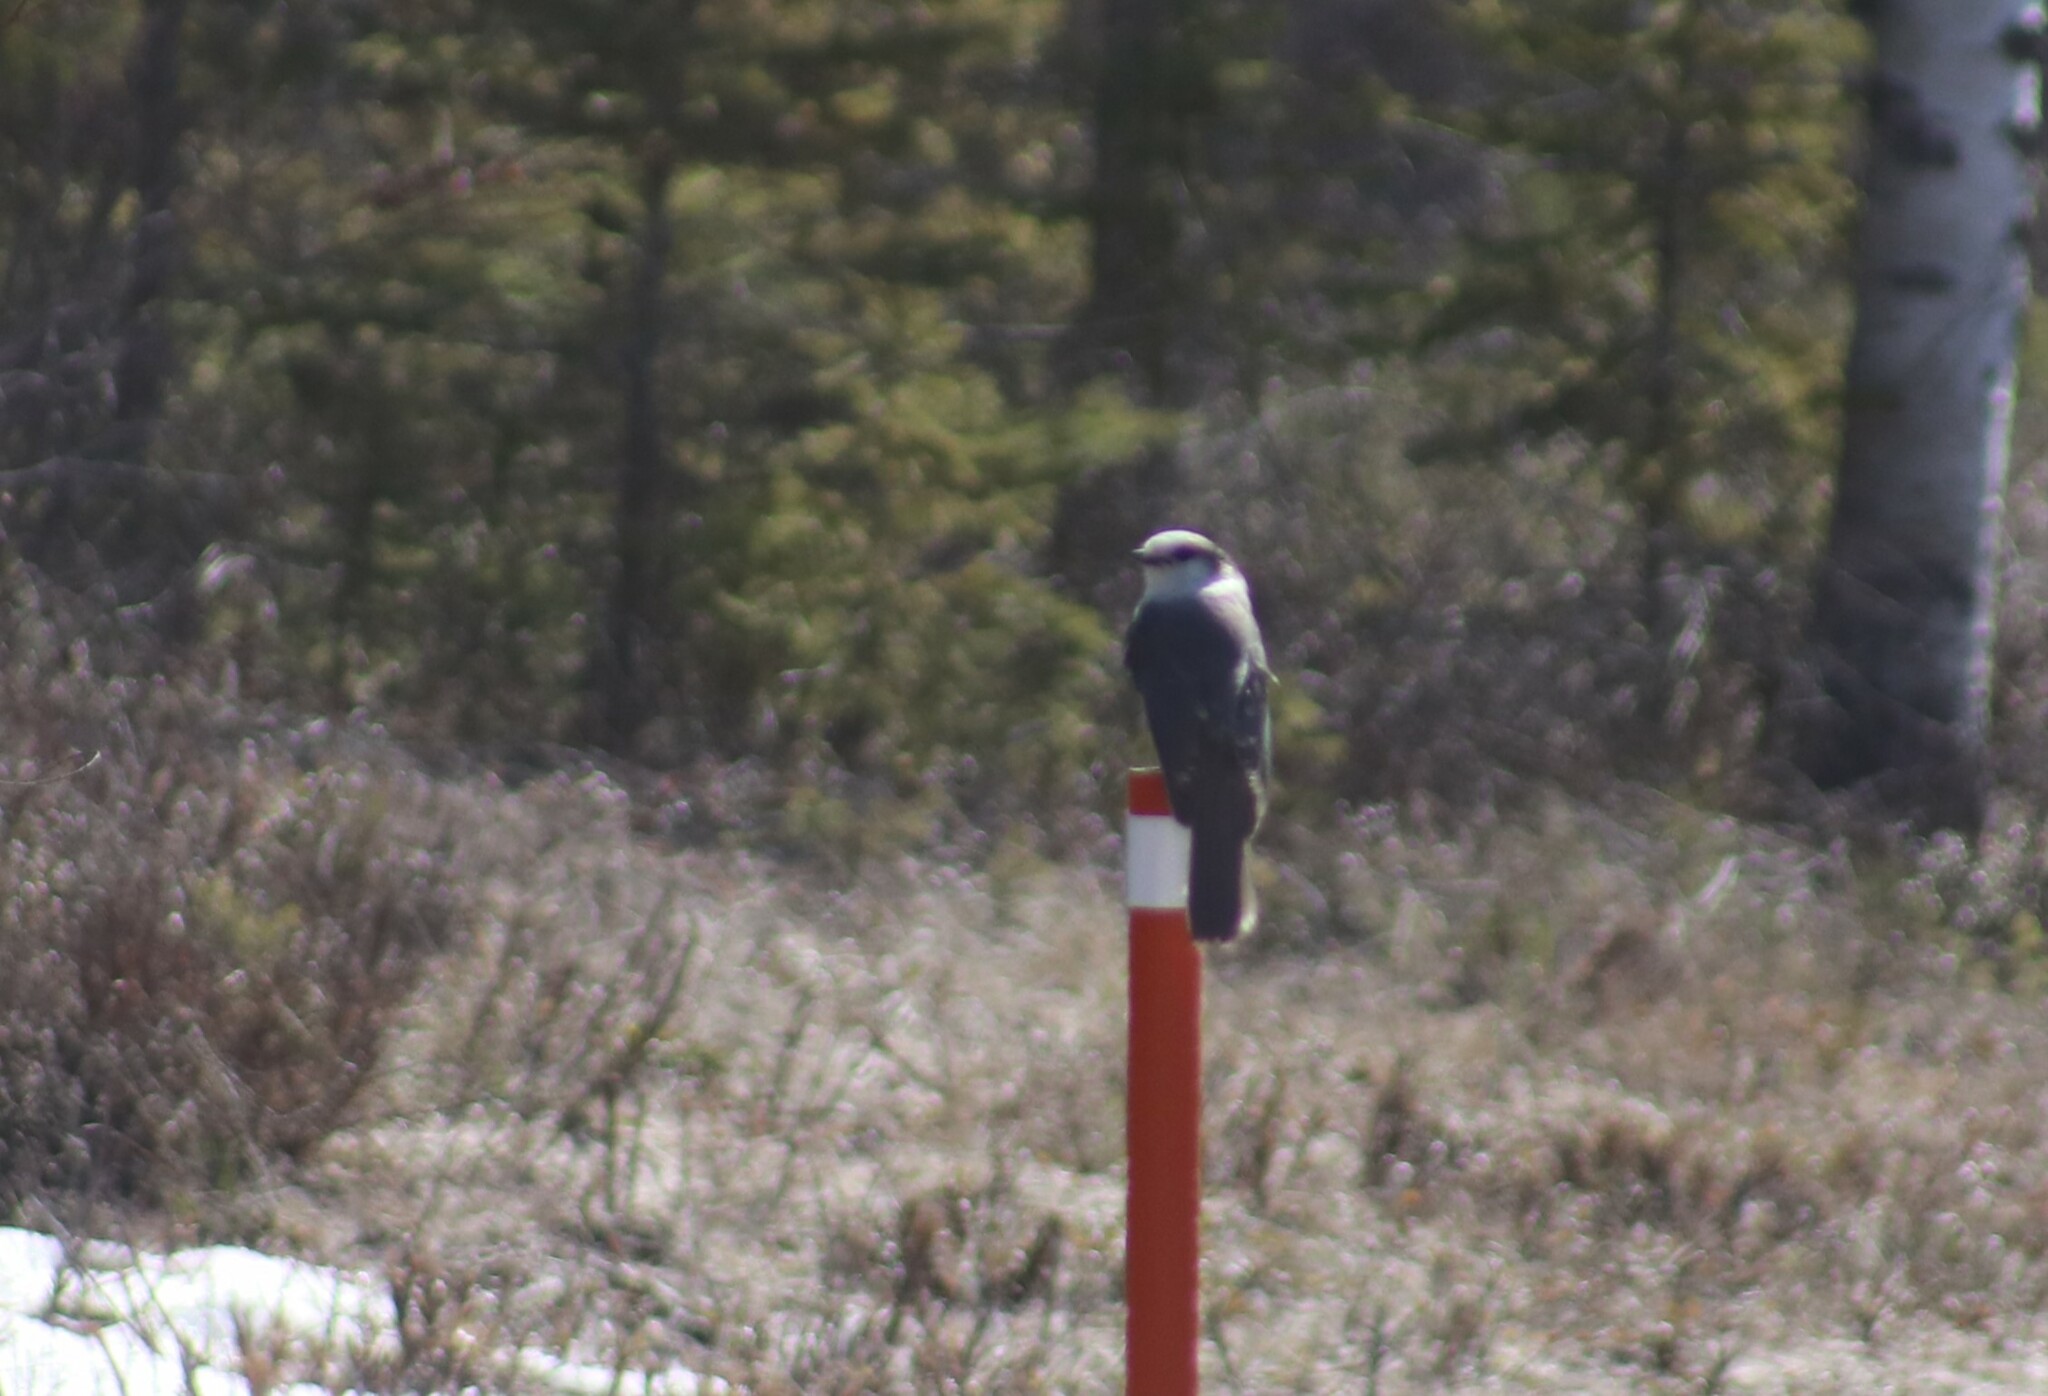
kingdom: Animalia
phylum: Chordata
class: Aves
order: Passeriformes
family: Corvidae
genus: Perisoreus
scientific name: Perisoreus canadensis
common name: Gray jay
